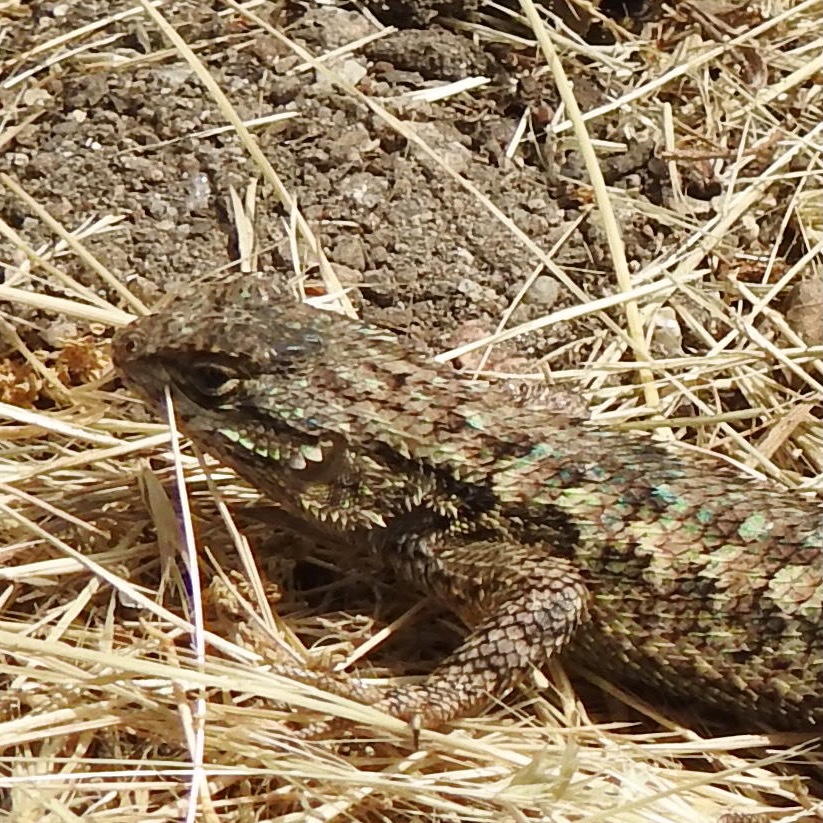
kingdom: Animalia
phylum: Chordata
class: Squamata
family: Phrynosomatidae
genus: Sceloporus
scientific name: Sceloporus occidentalis
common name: Western fence lizard
